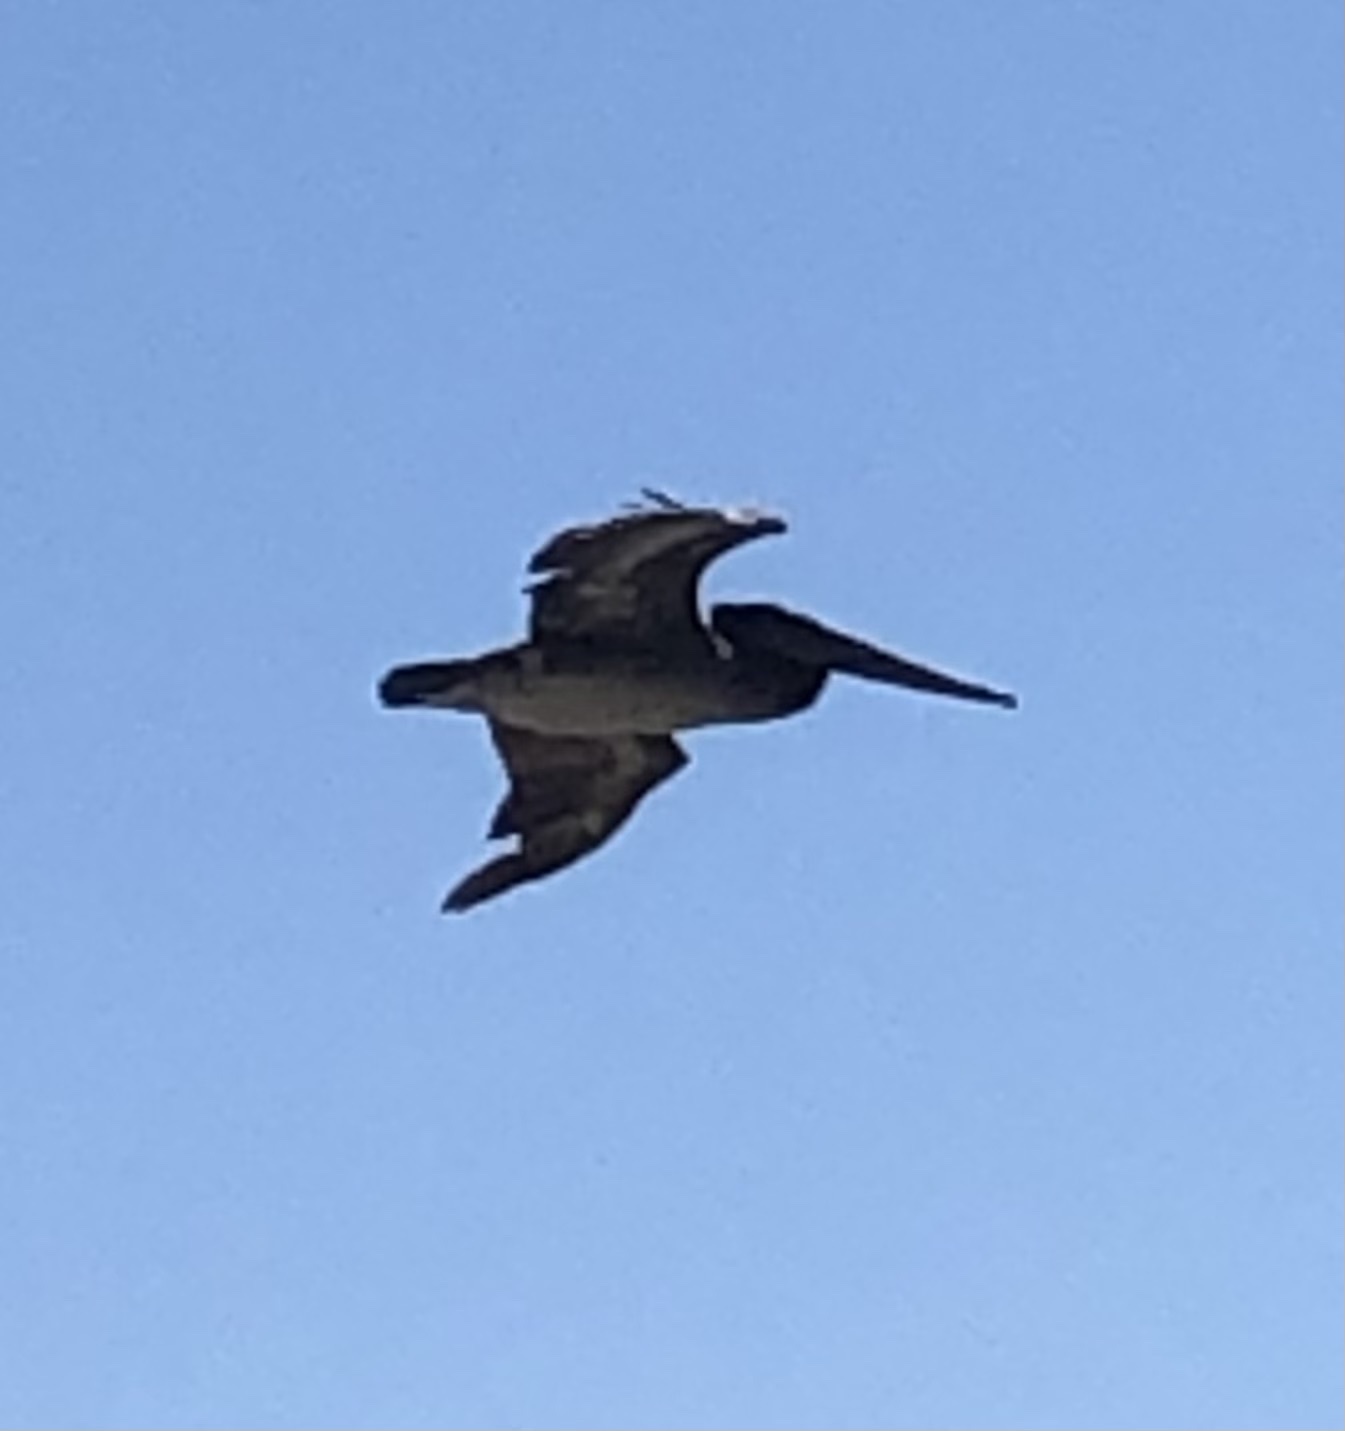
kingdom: Animalia
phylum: Chordata
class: Aves
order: Pelecaniformes
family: Pelecanidae
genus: Pelecanus
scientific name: Pelecanus occidentalis
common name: Brown pelican
